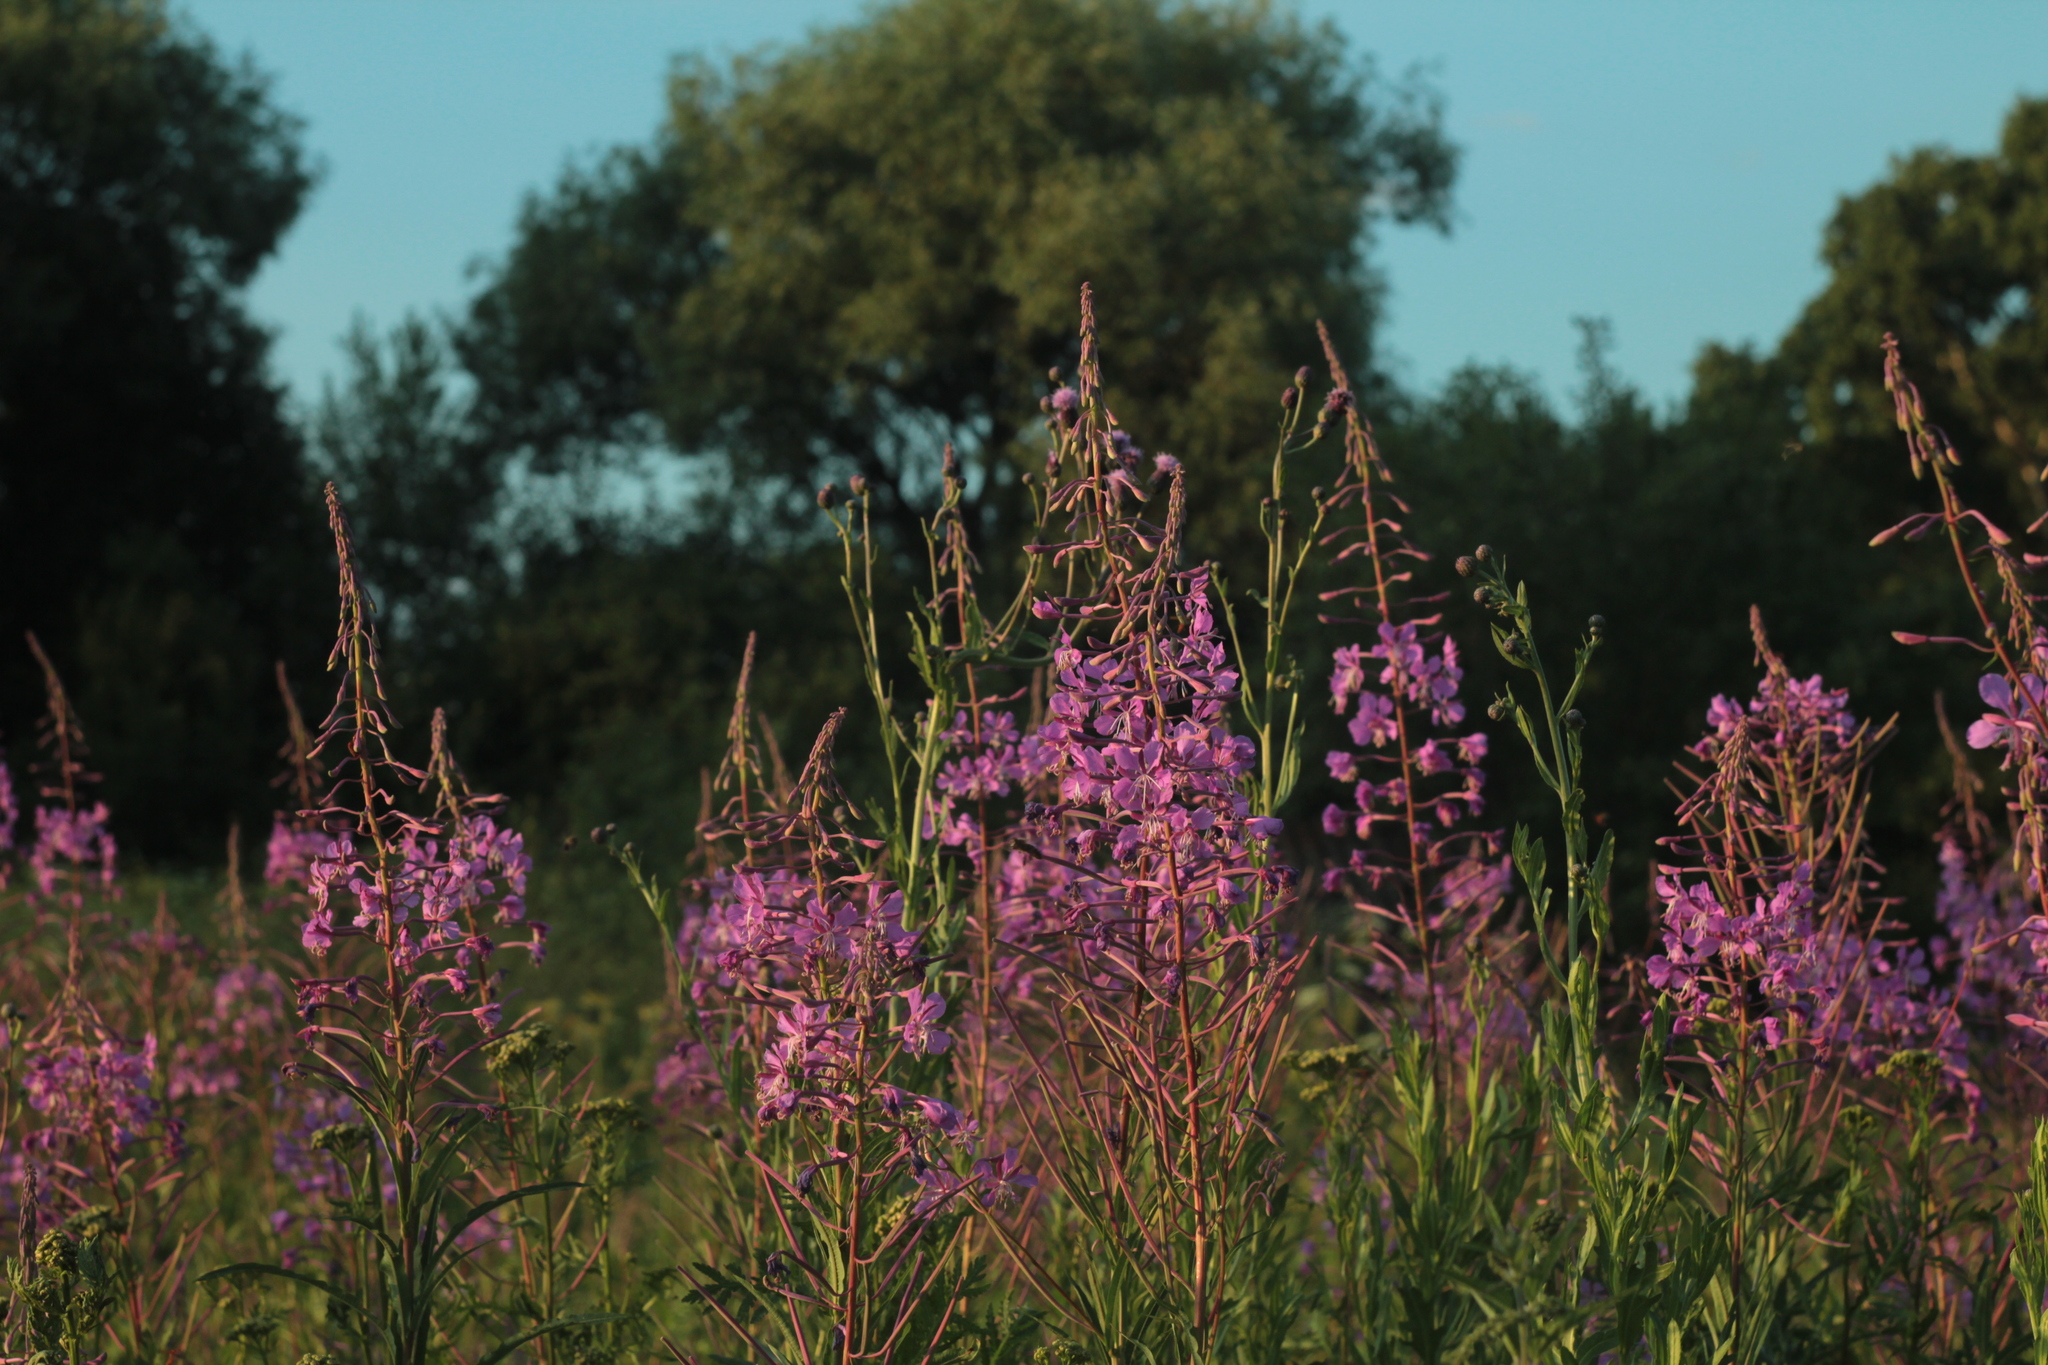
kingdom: Plantae
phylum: Tracheophyta
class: Magnoliopsida
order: Myrtales
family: Onagraceae
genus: Chamaenerion
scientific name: Chamaenerion angustifolium
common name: Fireweed
